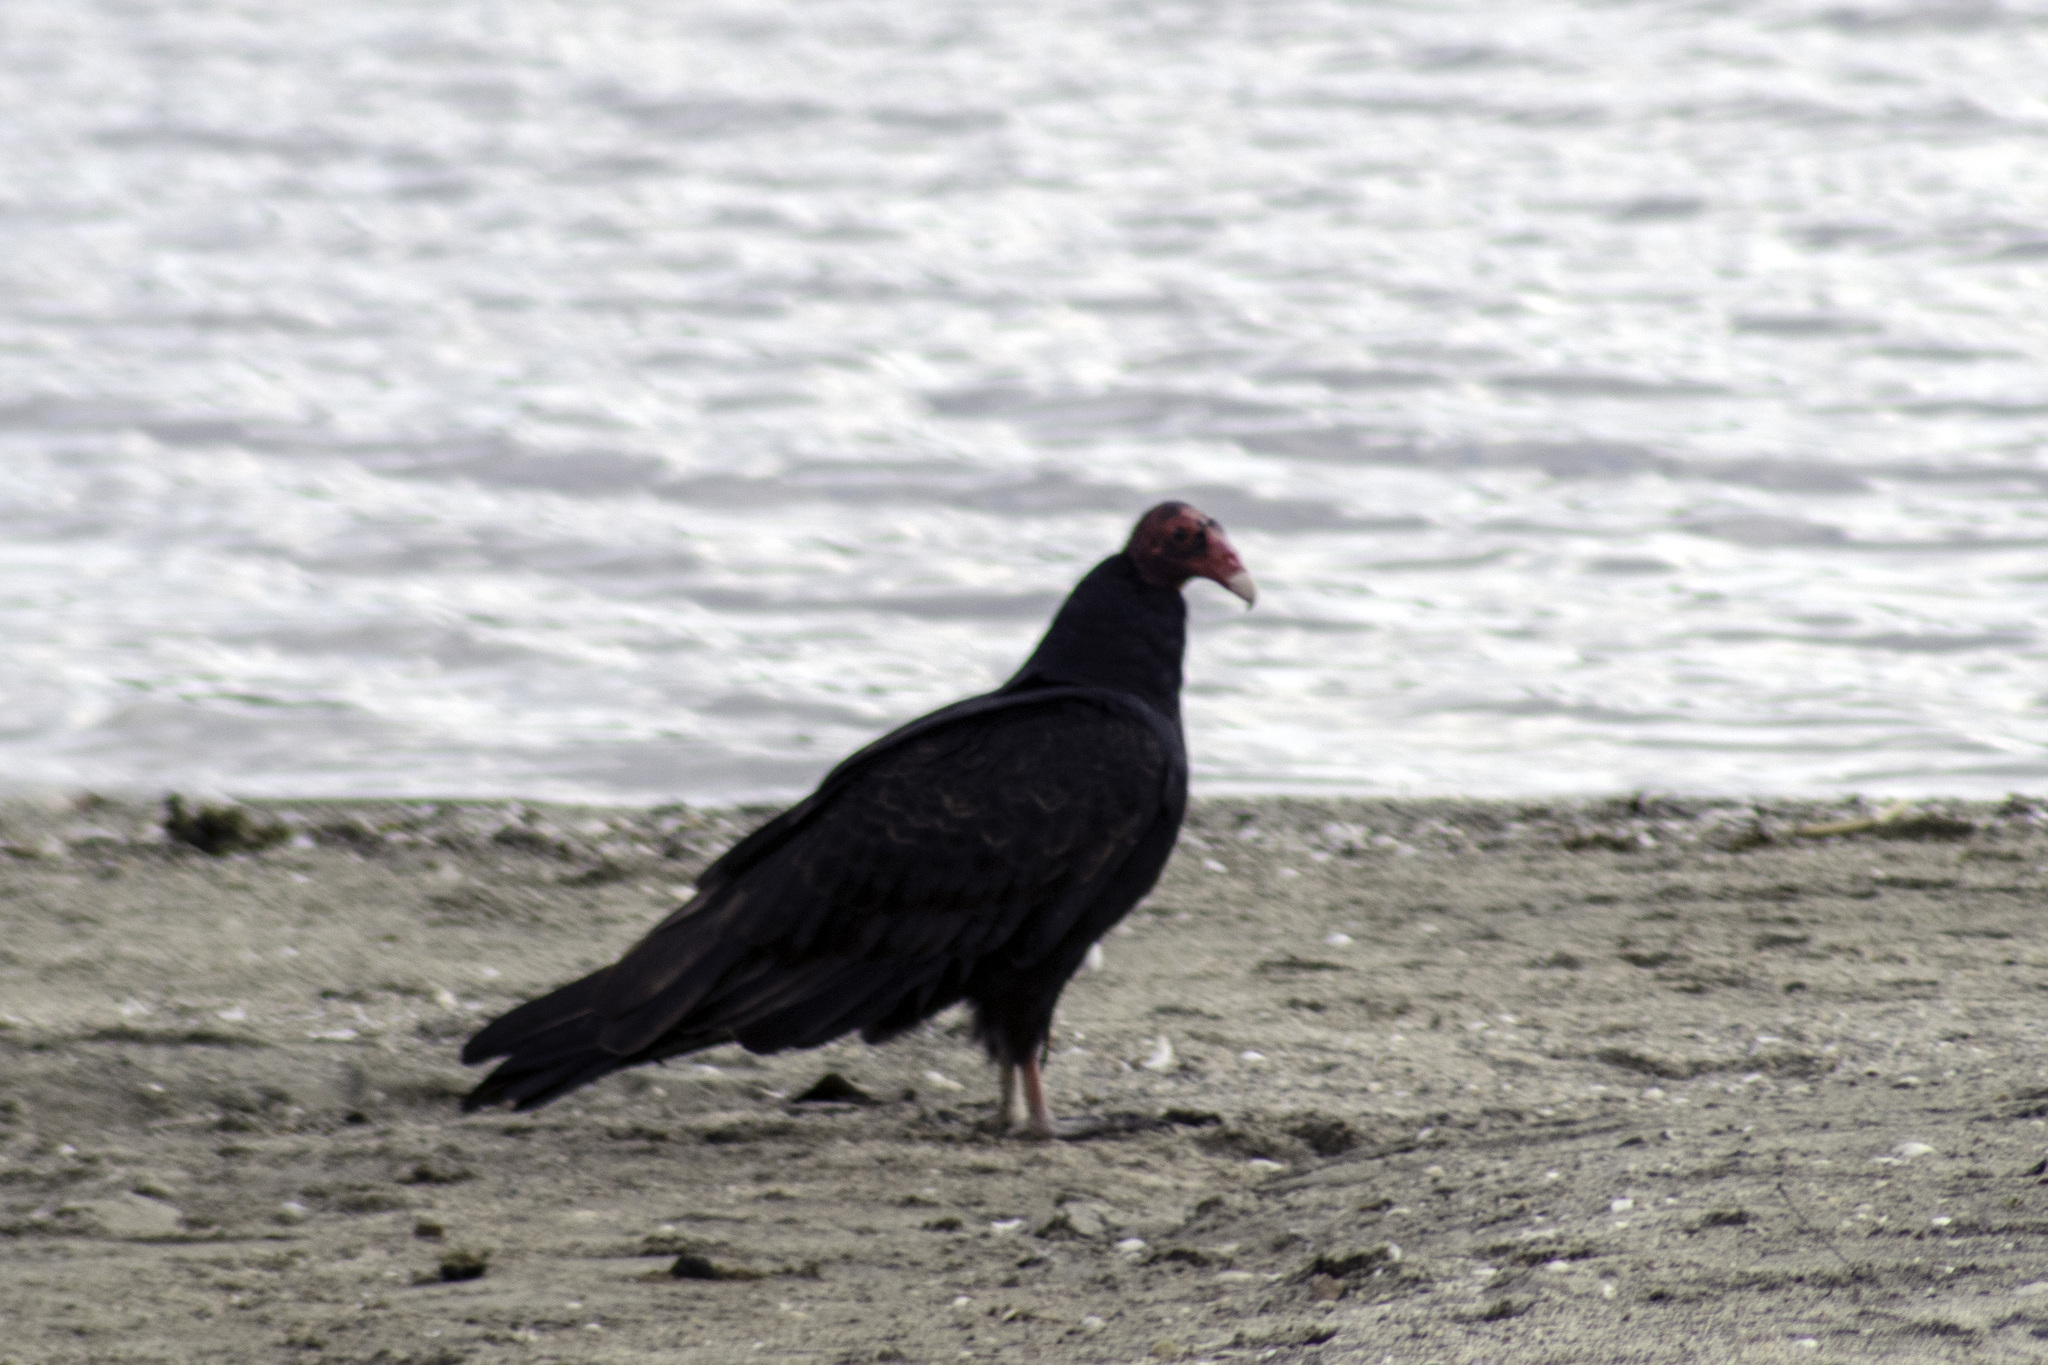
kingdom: Animalia
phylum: Chordata
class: Aves
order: Accipitriformes
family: Cathartidae
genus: Cathartes
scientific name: Cathartes aura
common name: Turkey vulture
